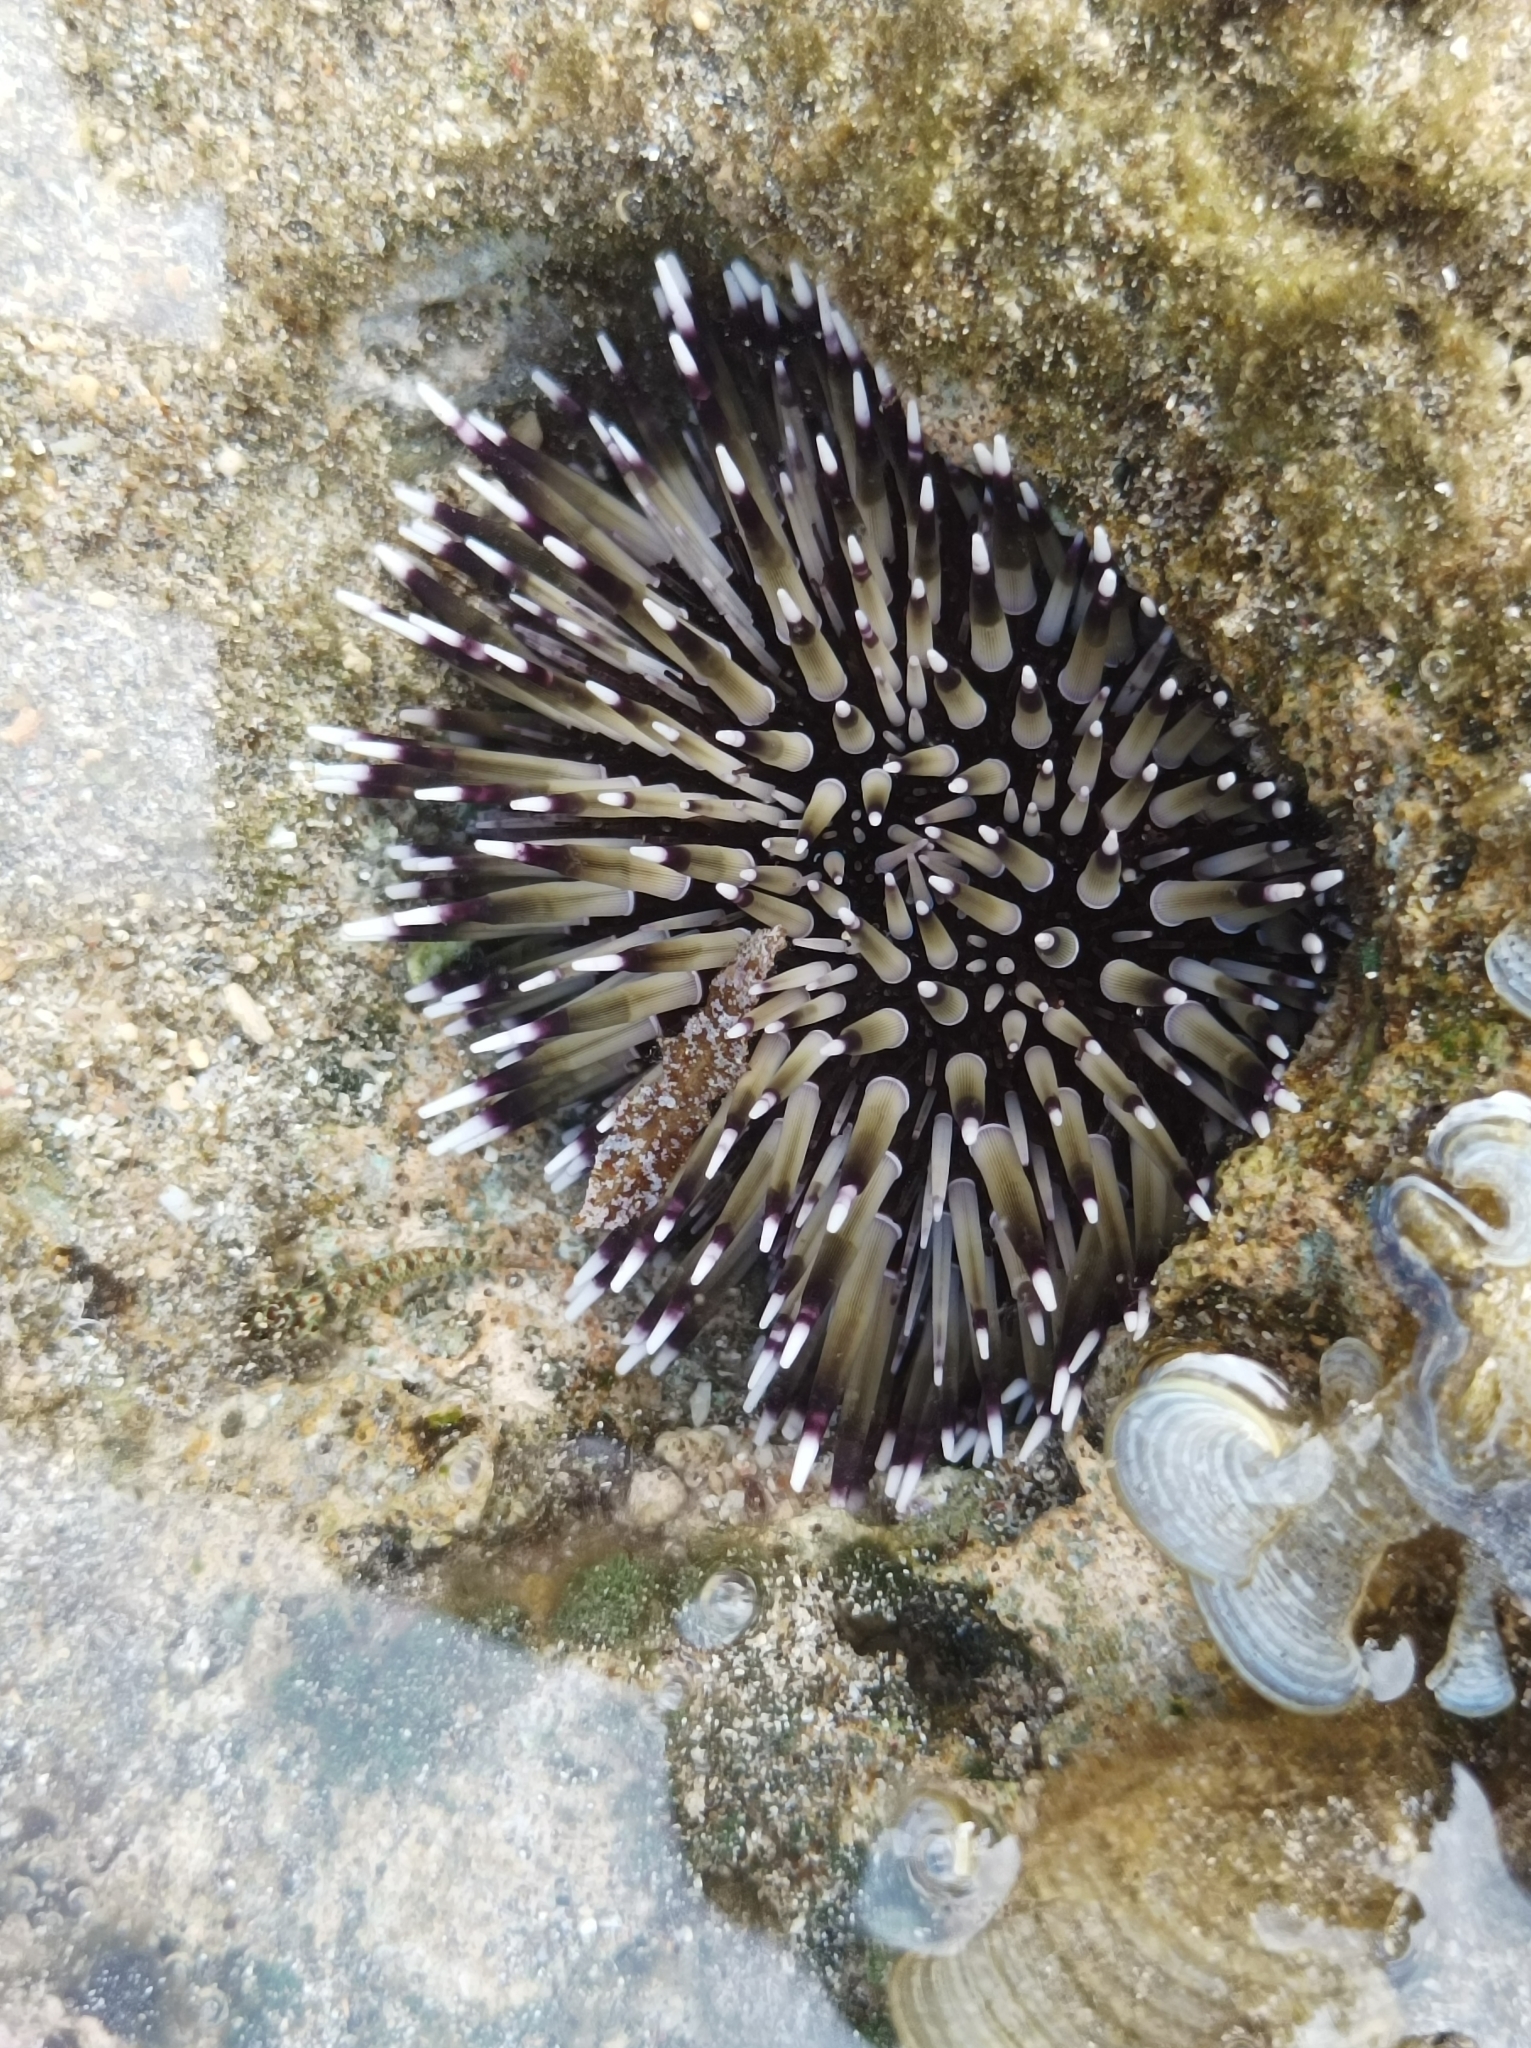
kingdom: Animalia
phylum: Echinodermata
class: Echinoidea
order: Camarodonta
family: Echinometridae
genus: Echinometra
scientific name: Echinometra mathaei
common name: Rock-boring urchin
